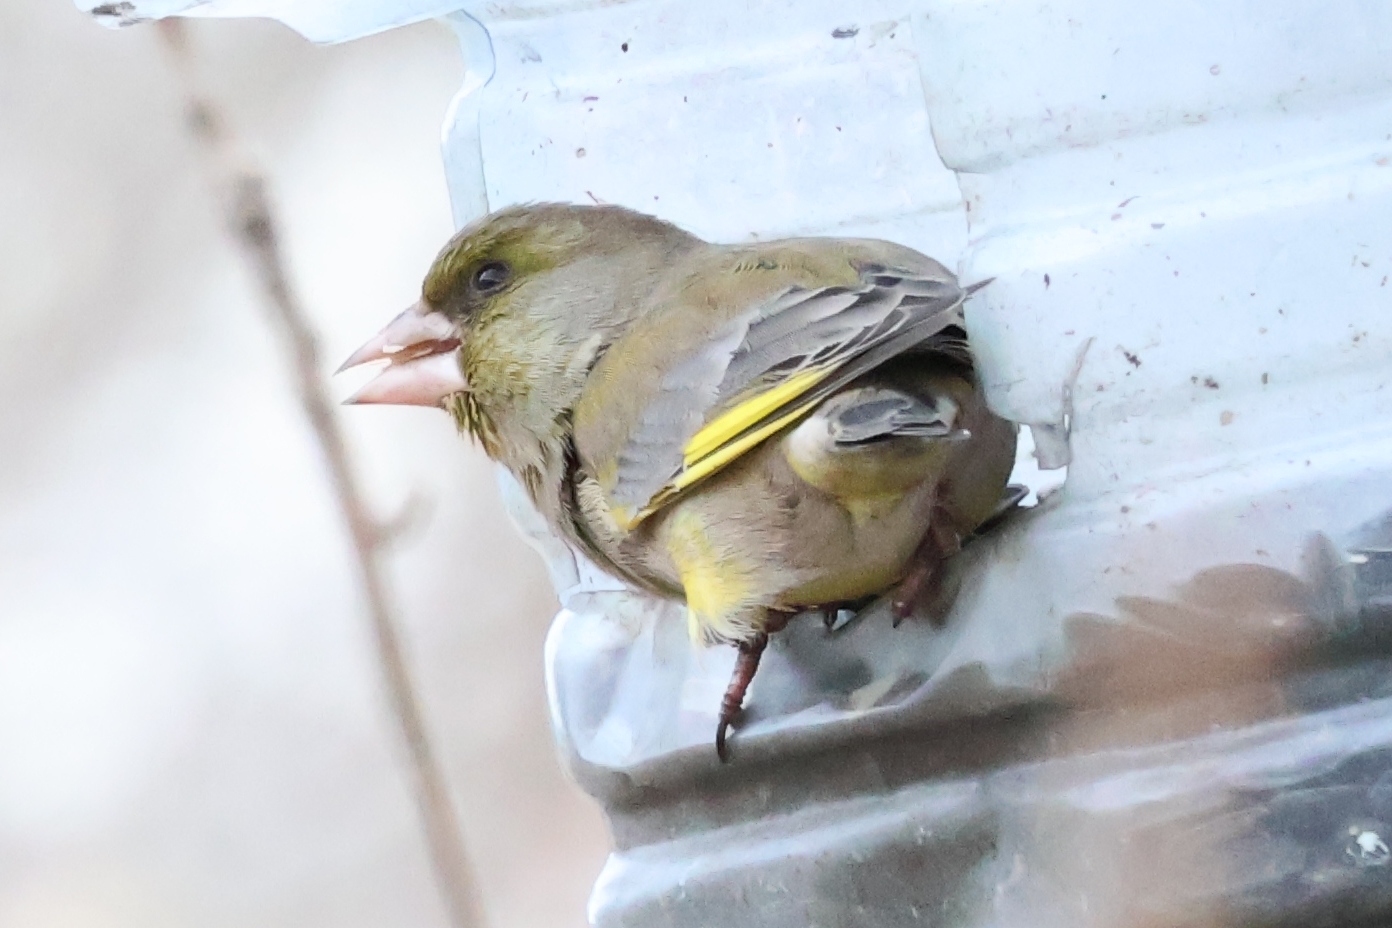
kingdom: Plantae
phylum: Tracheophyta
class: Liliopsida
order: Poales
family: Poaceae
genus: Chloris
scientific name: Chloris chloris
